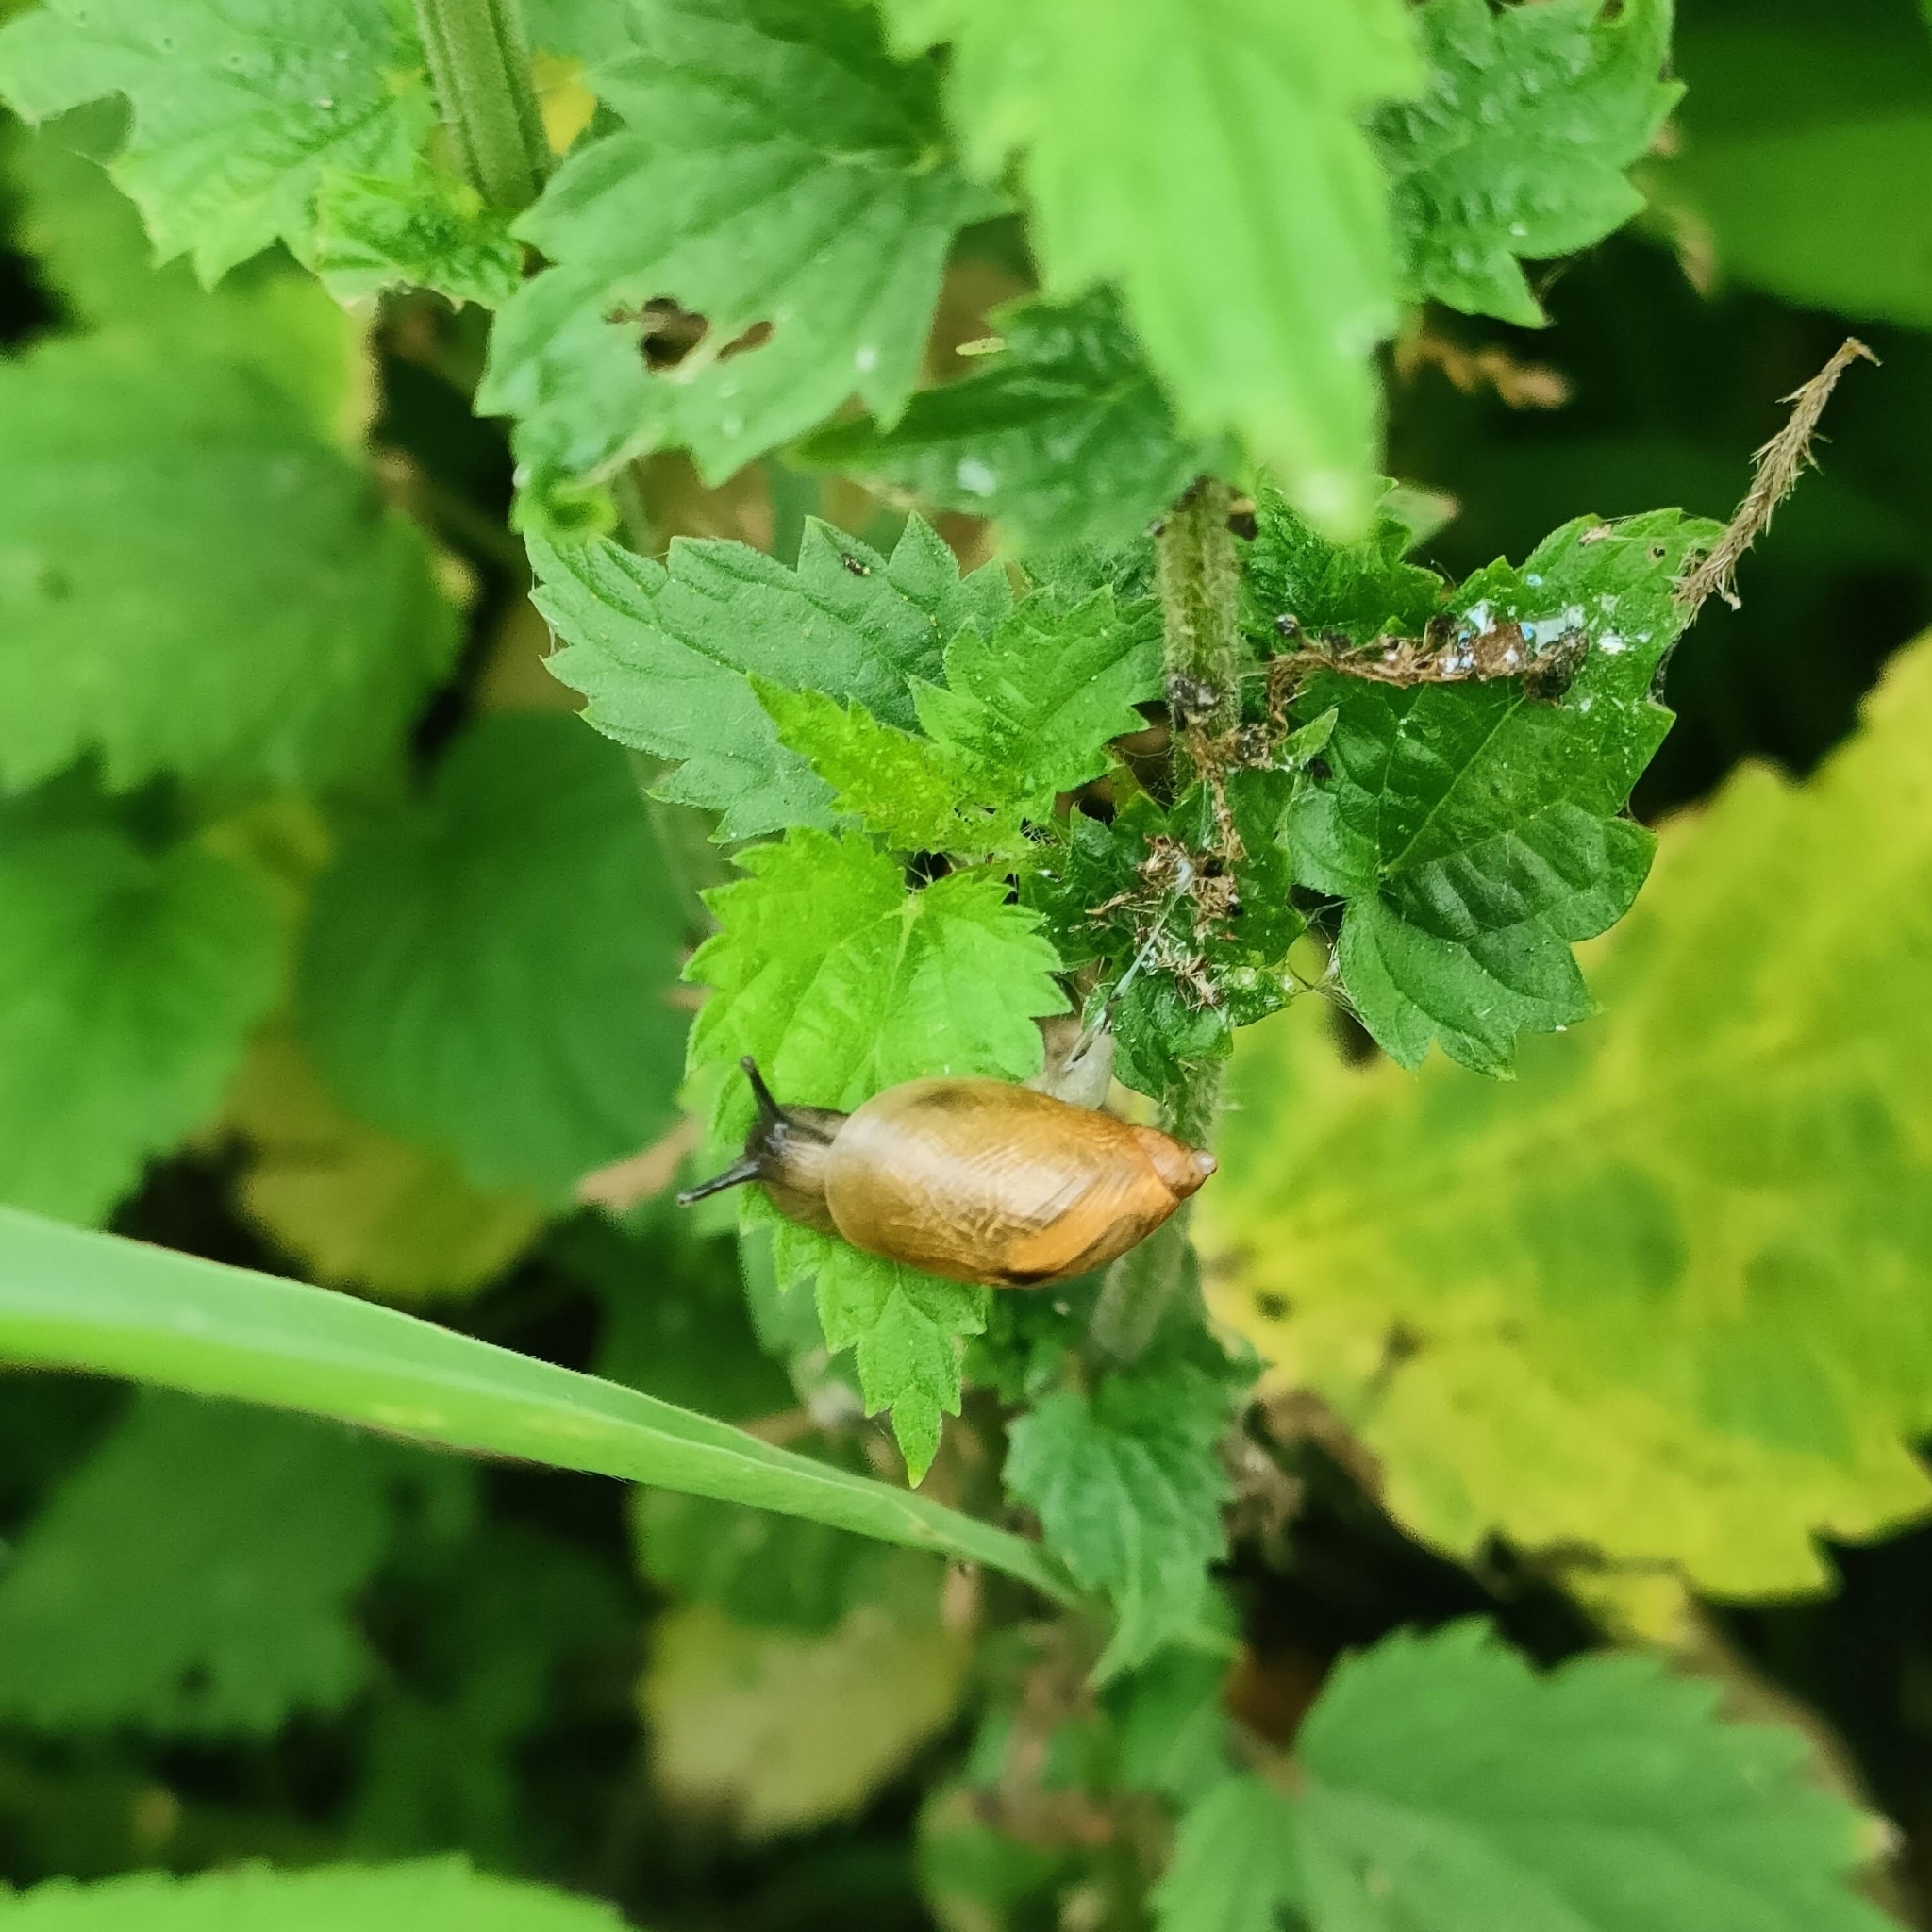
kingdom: Animalia
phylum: Mollusca
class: Gastropoda
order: Stylommatophora
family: Succineidae
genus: Succinea
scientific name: Succinea putris
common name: European ambersnail
